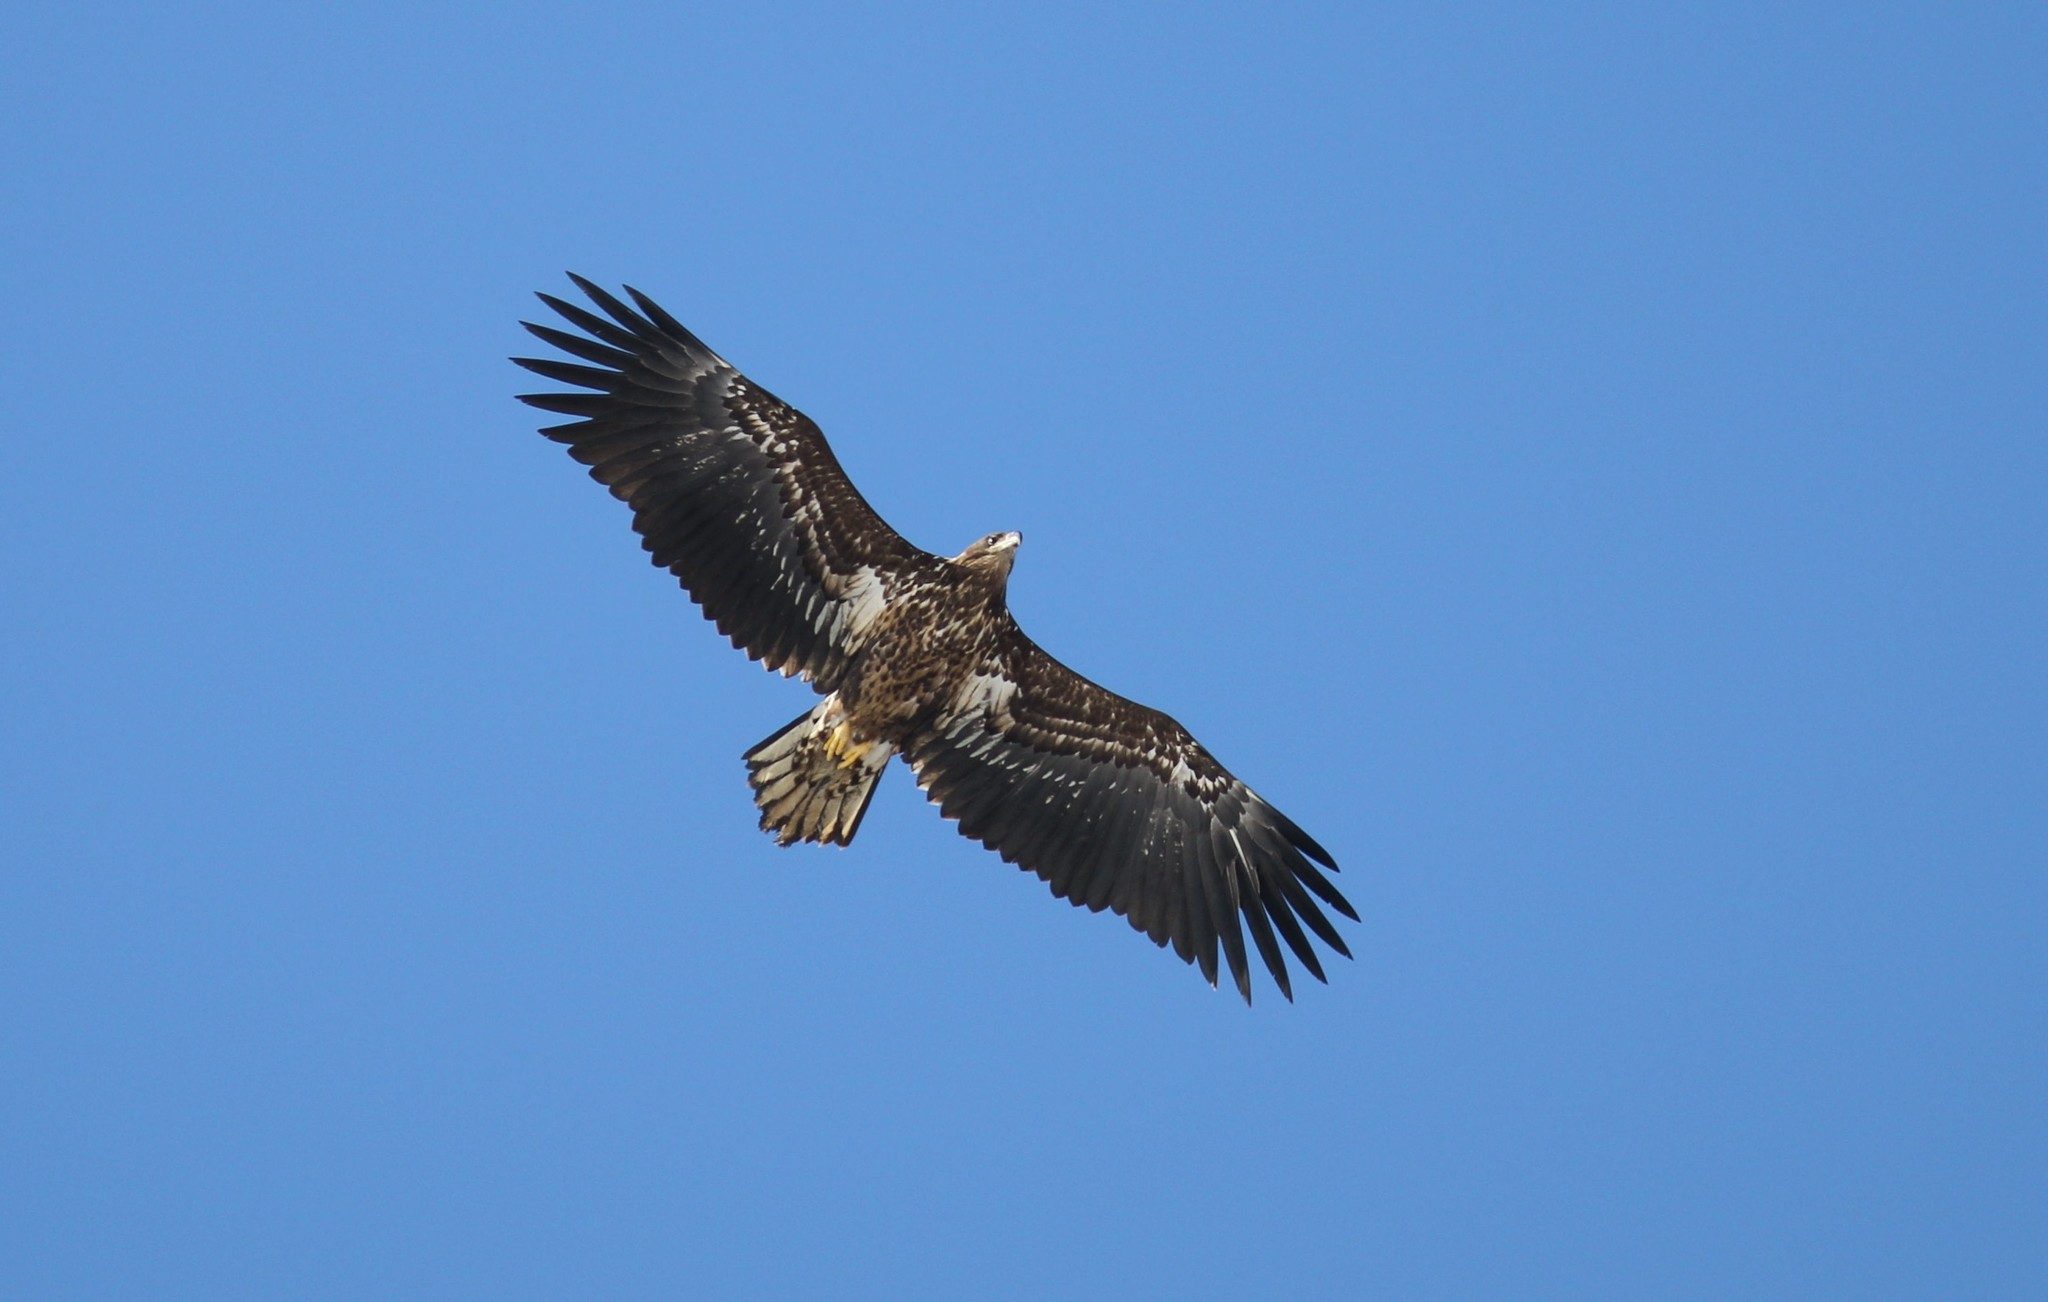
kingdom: Animalia
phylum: Chordata
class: Aves
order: Accipitriformes
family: Accipitridae
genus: Haliaeetus
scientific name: Haliaeetus albicilla
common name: White-tailed eagle
